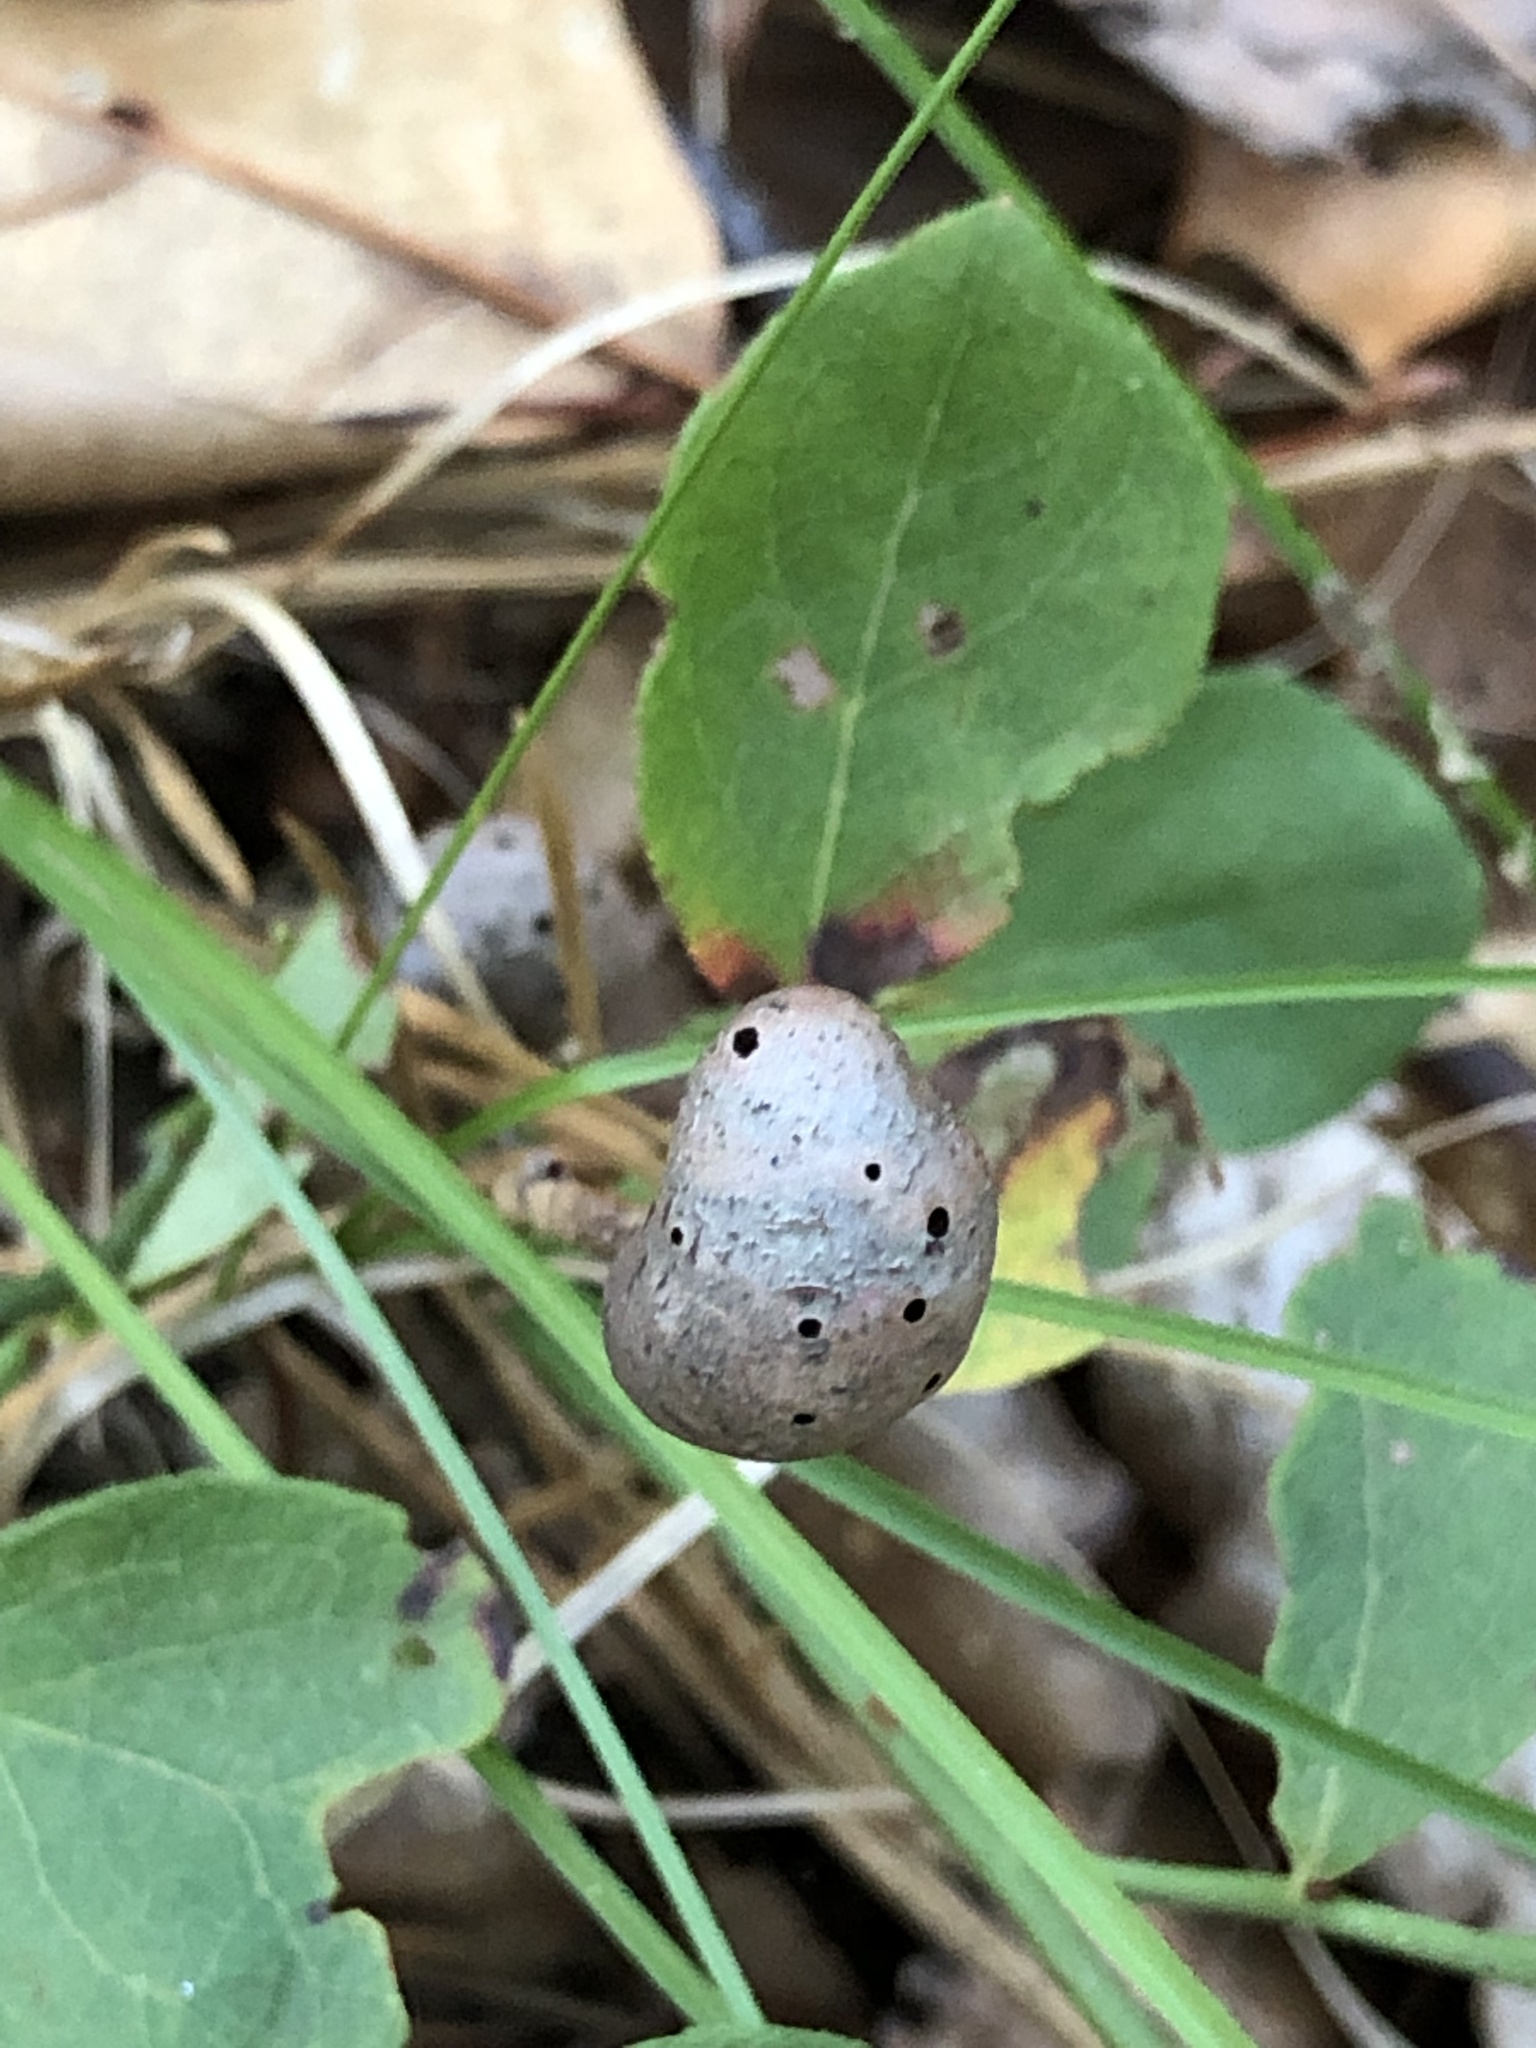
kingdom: Animalia
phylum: Arthropoda
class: Insecta
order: Hymenoptera
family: Pteromalidae
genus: Hemadas
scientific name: Hemadas nubilipennis
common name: Blueberry stem gall wasp
